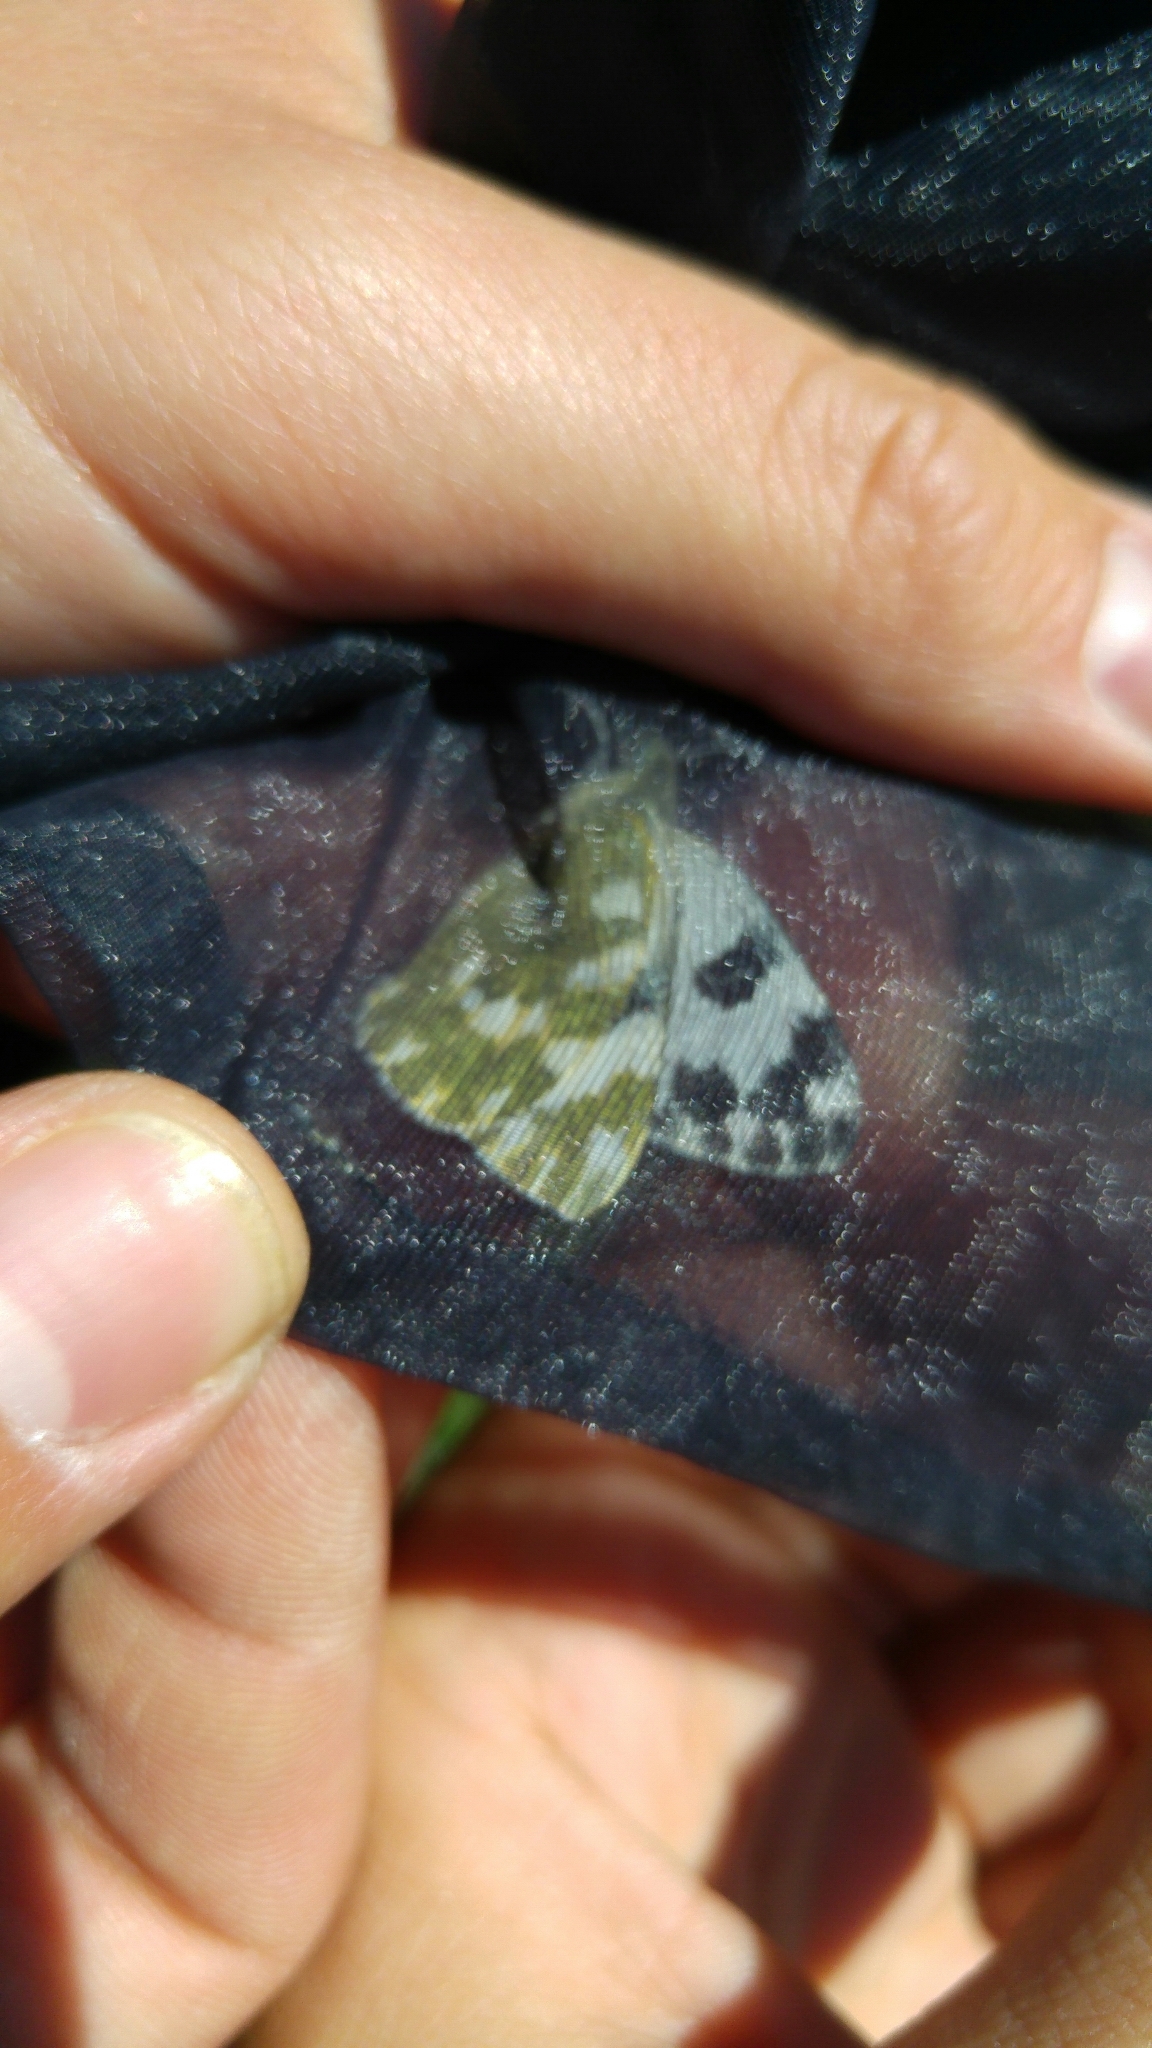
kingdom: Animalia
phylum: Arthropoda
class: Insecta
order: Lepidoptera
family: Pieridae
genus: Pontia
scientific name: Pontia daplidice
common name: Bath white
